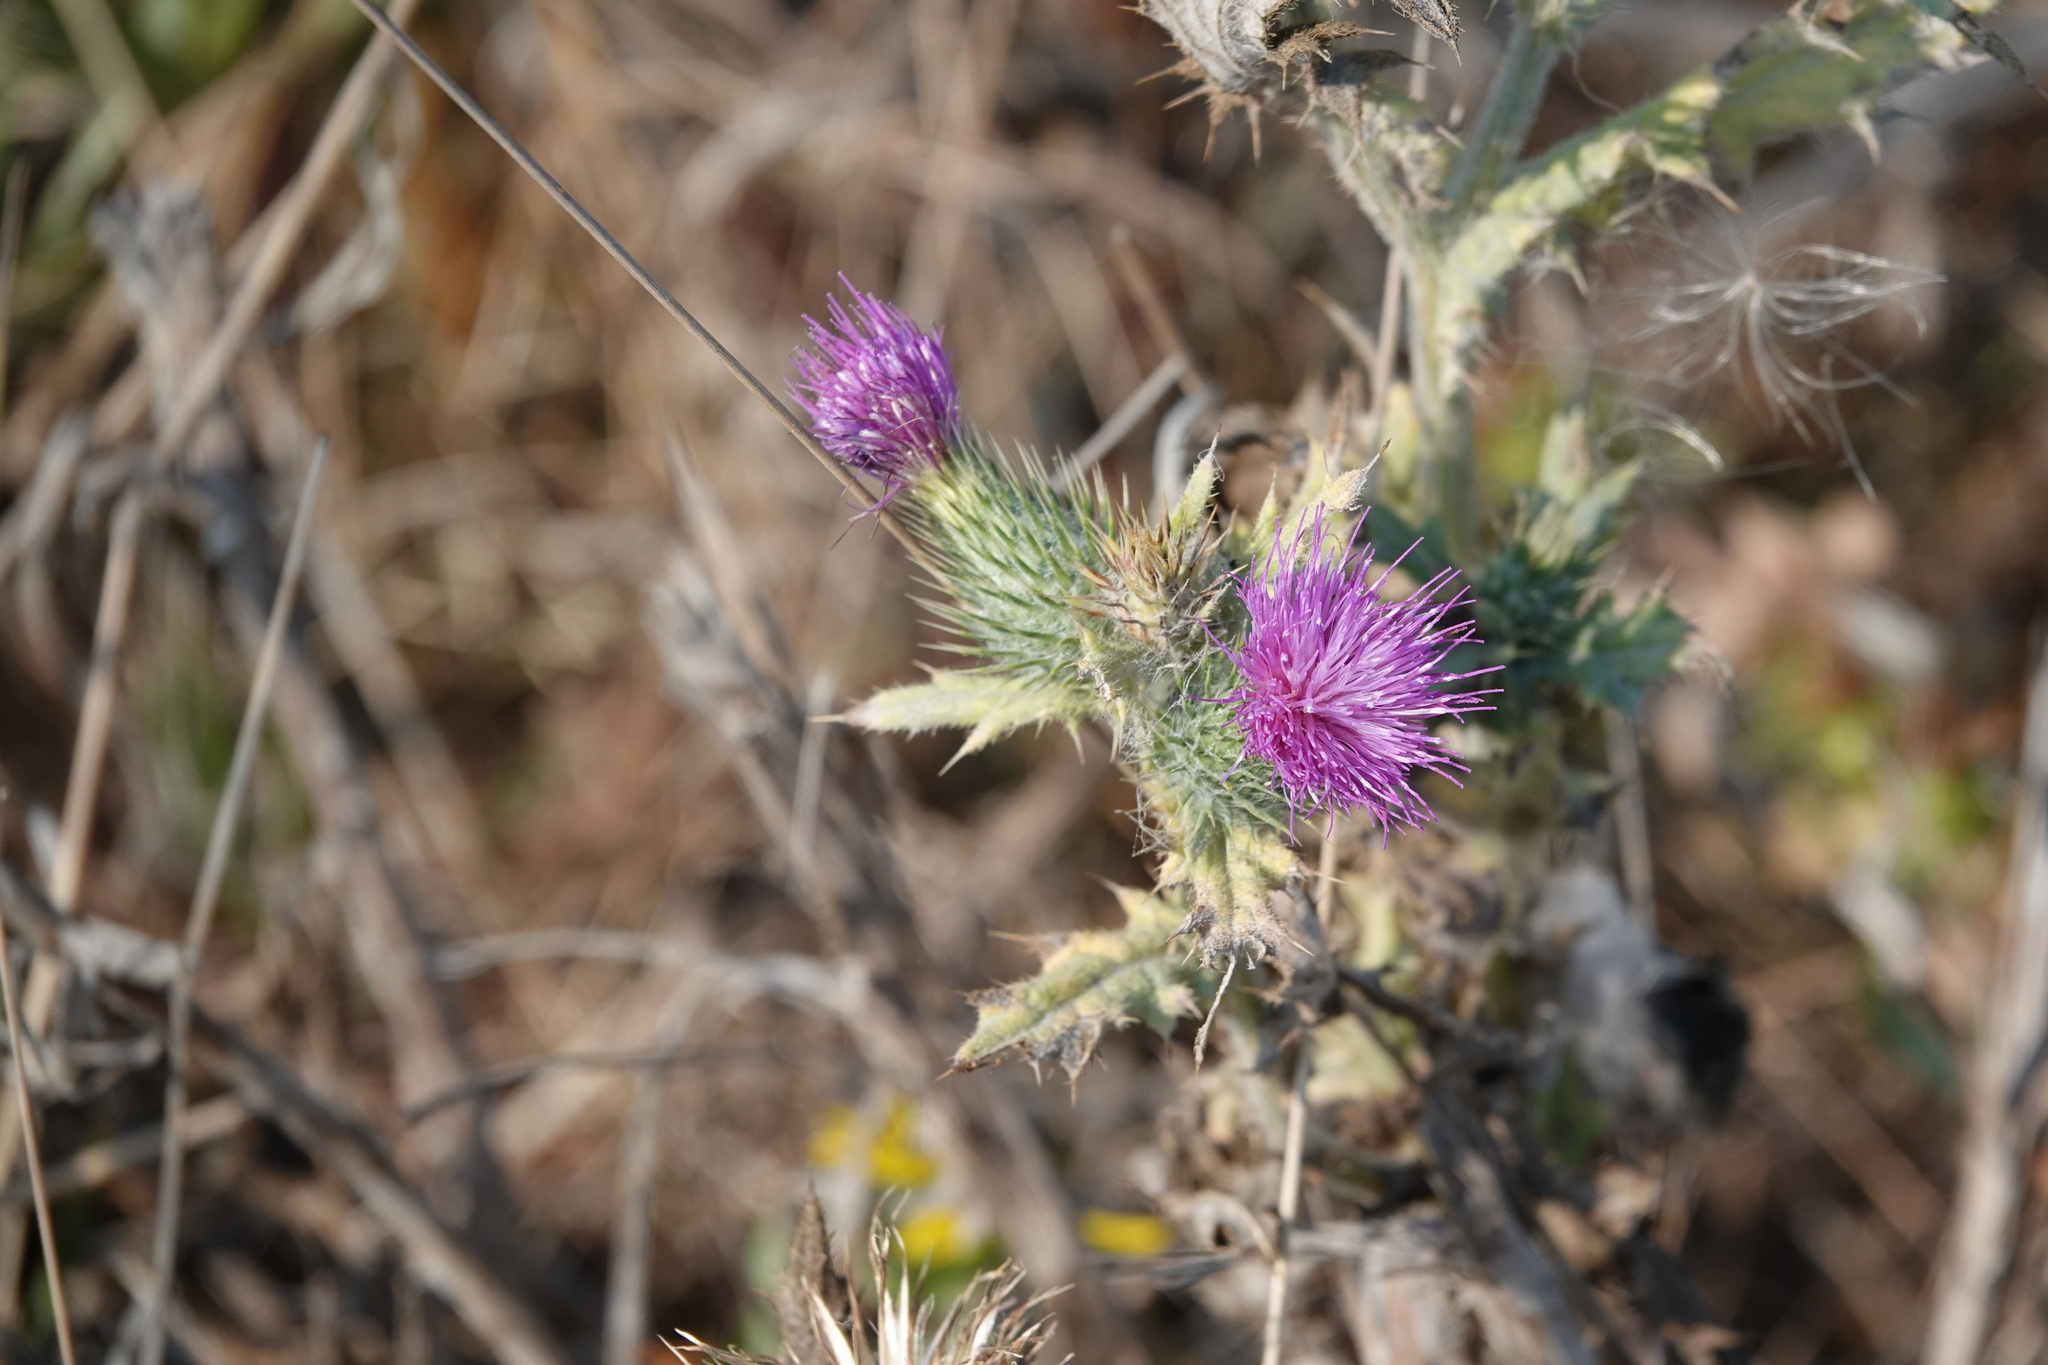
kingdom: Plantae
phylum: Tracheophyta
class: Magnoliopsida
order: Asterales
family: Asteraceae
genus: Cirsium
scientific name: Cirsium vulgare
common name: Bull thistle
